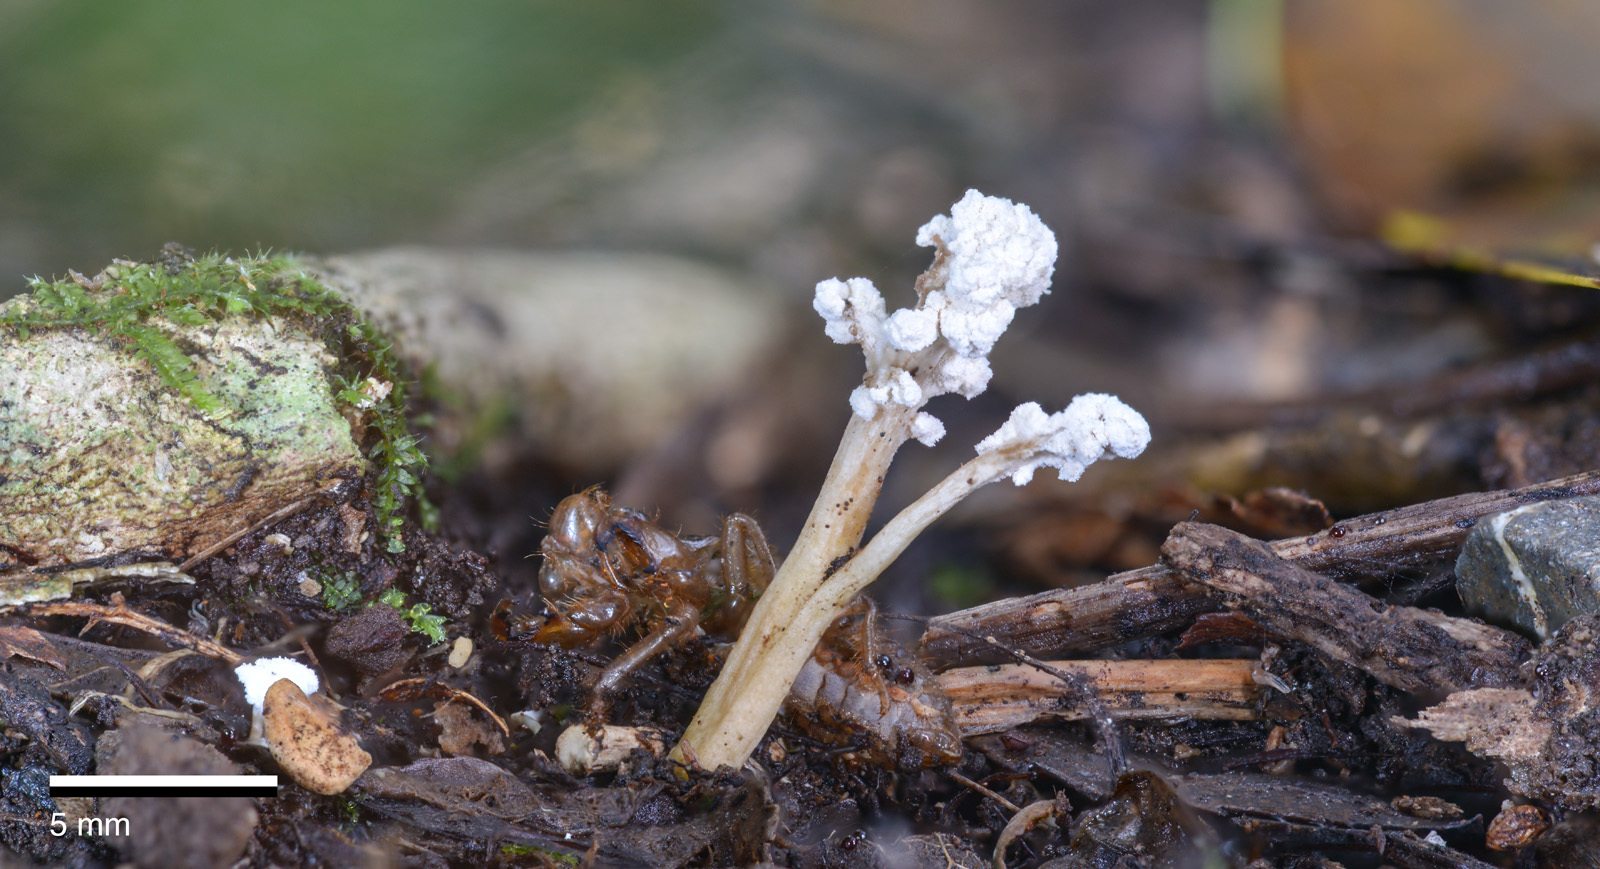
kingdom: Fungi
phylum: Ascomycota
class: Sordariomycetes
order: Hypocreales
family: Cordycipitaceae
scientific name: Cordycipitaceae
